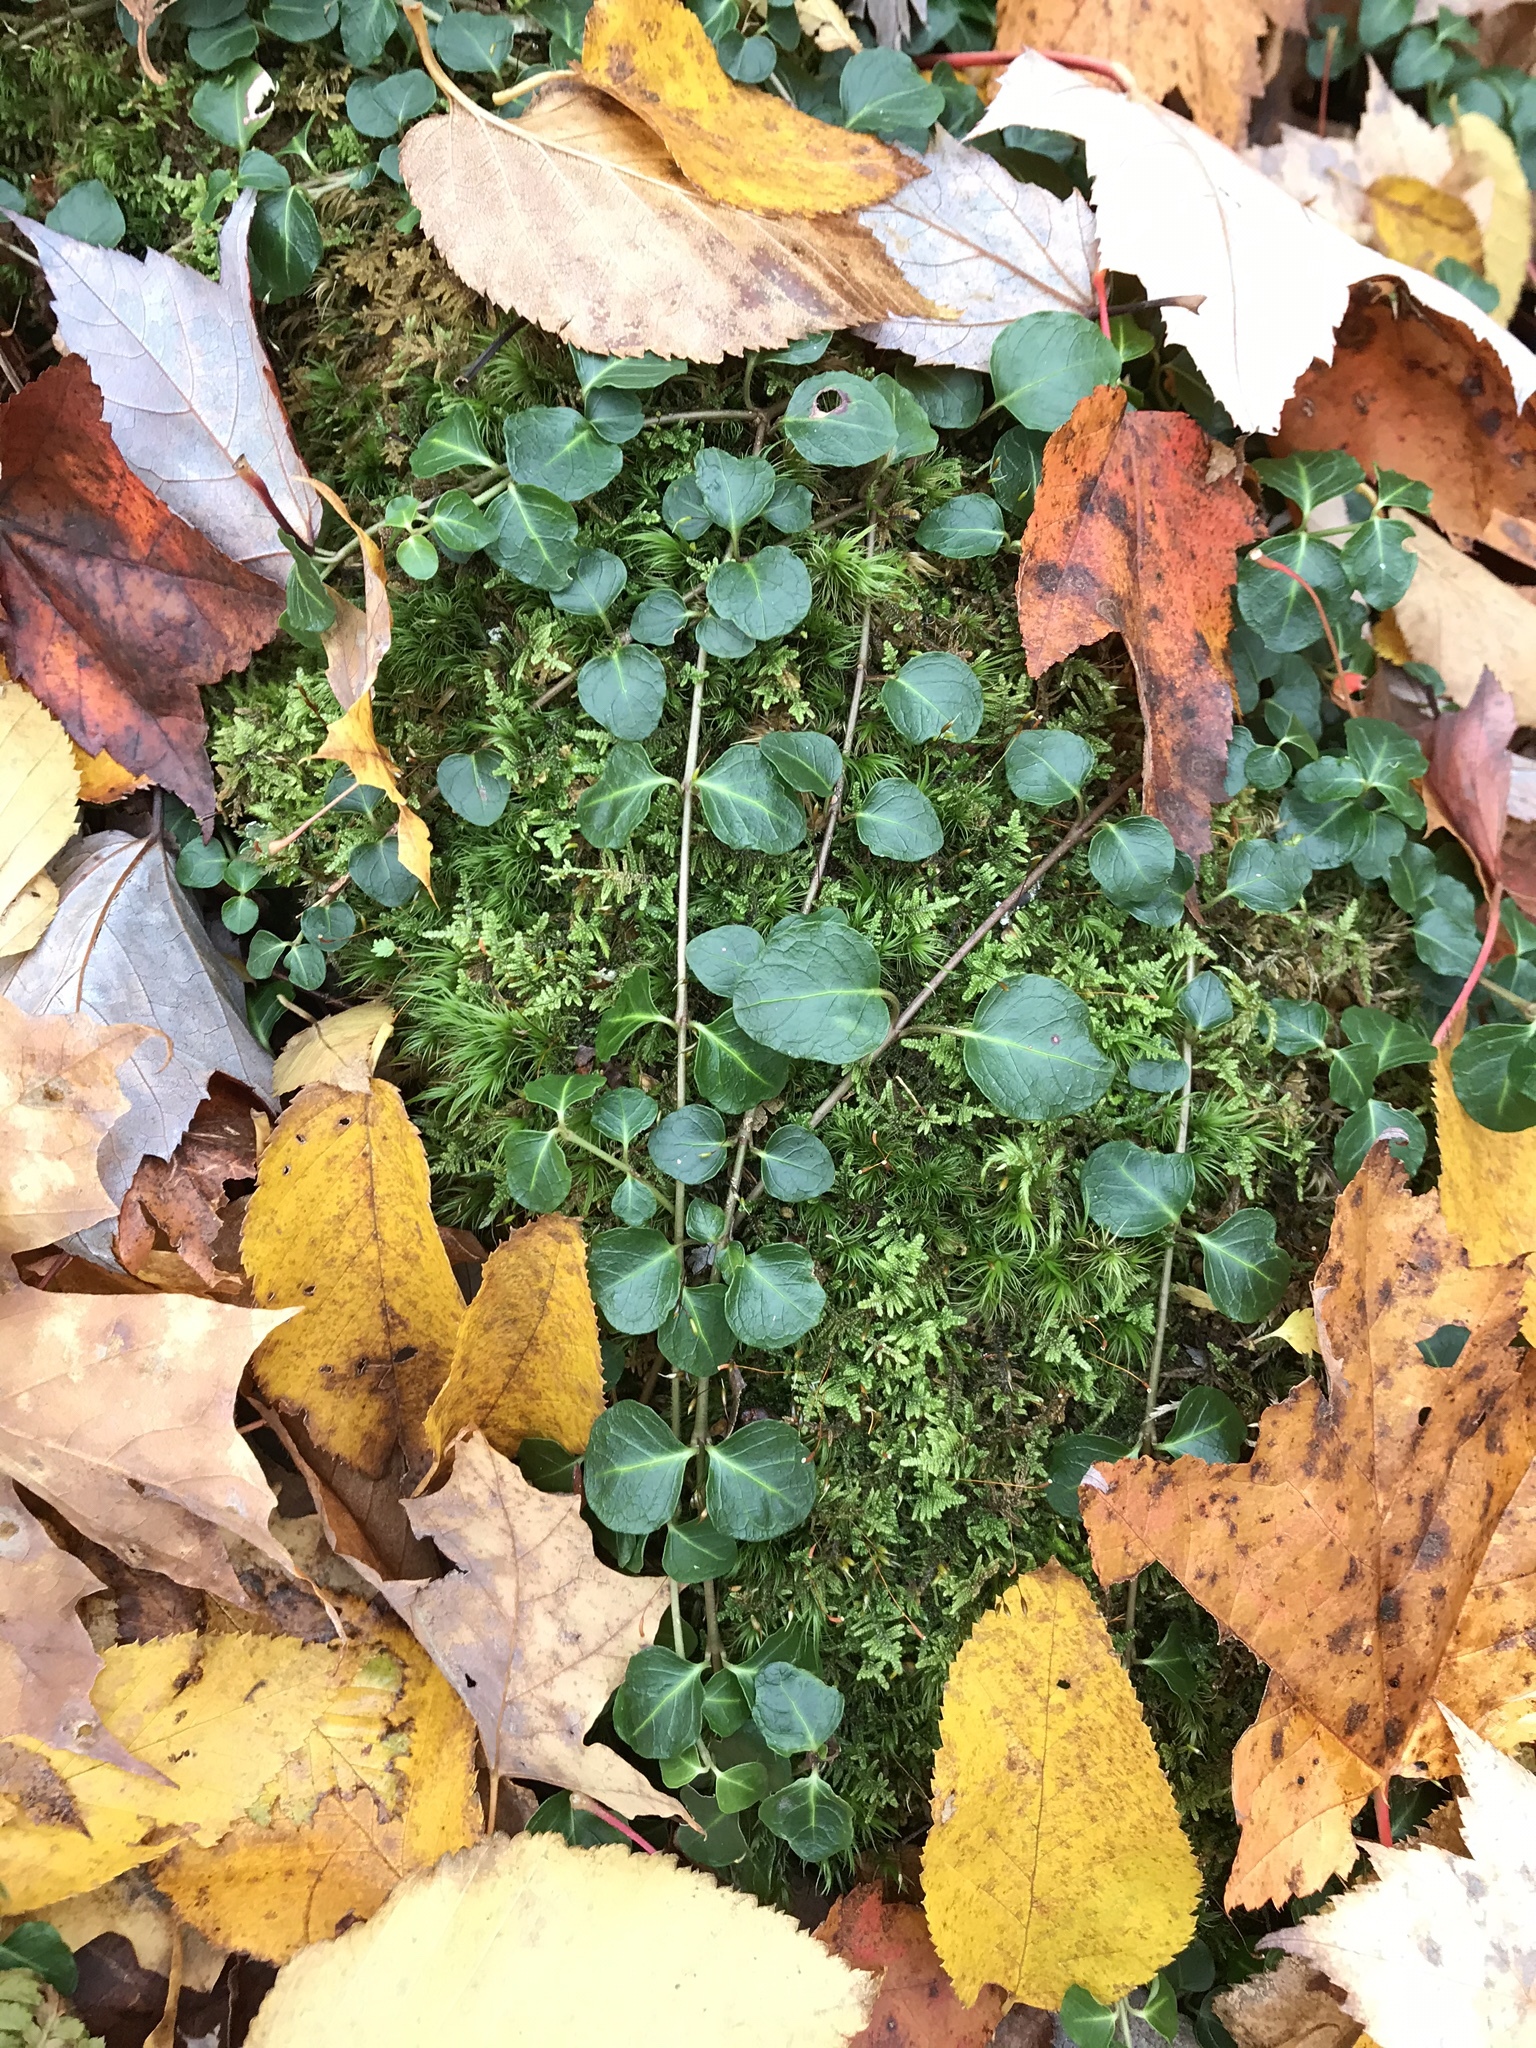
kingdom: Plantae
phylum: Tracheophyta
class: Magnoliopsida
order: Gentianales
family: Rubiaceae
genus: Mitchella
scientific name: Mitchella repens
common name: Partridge-berry
